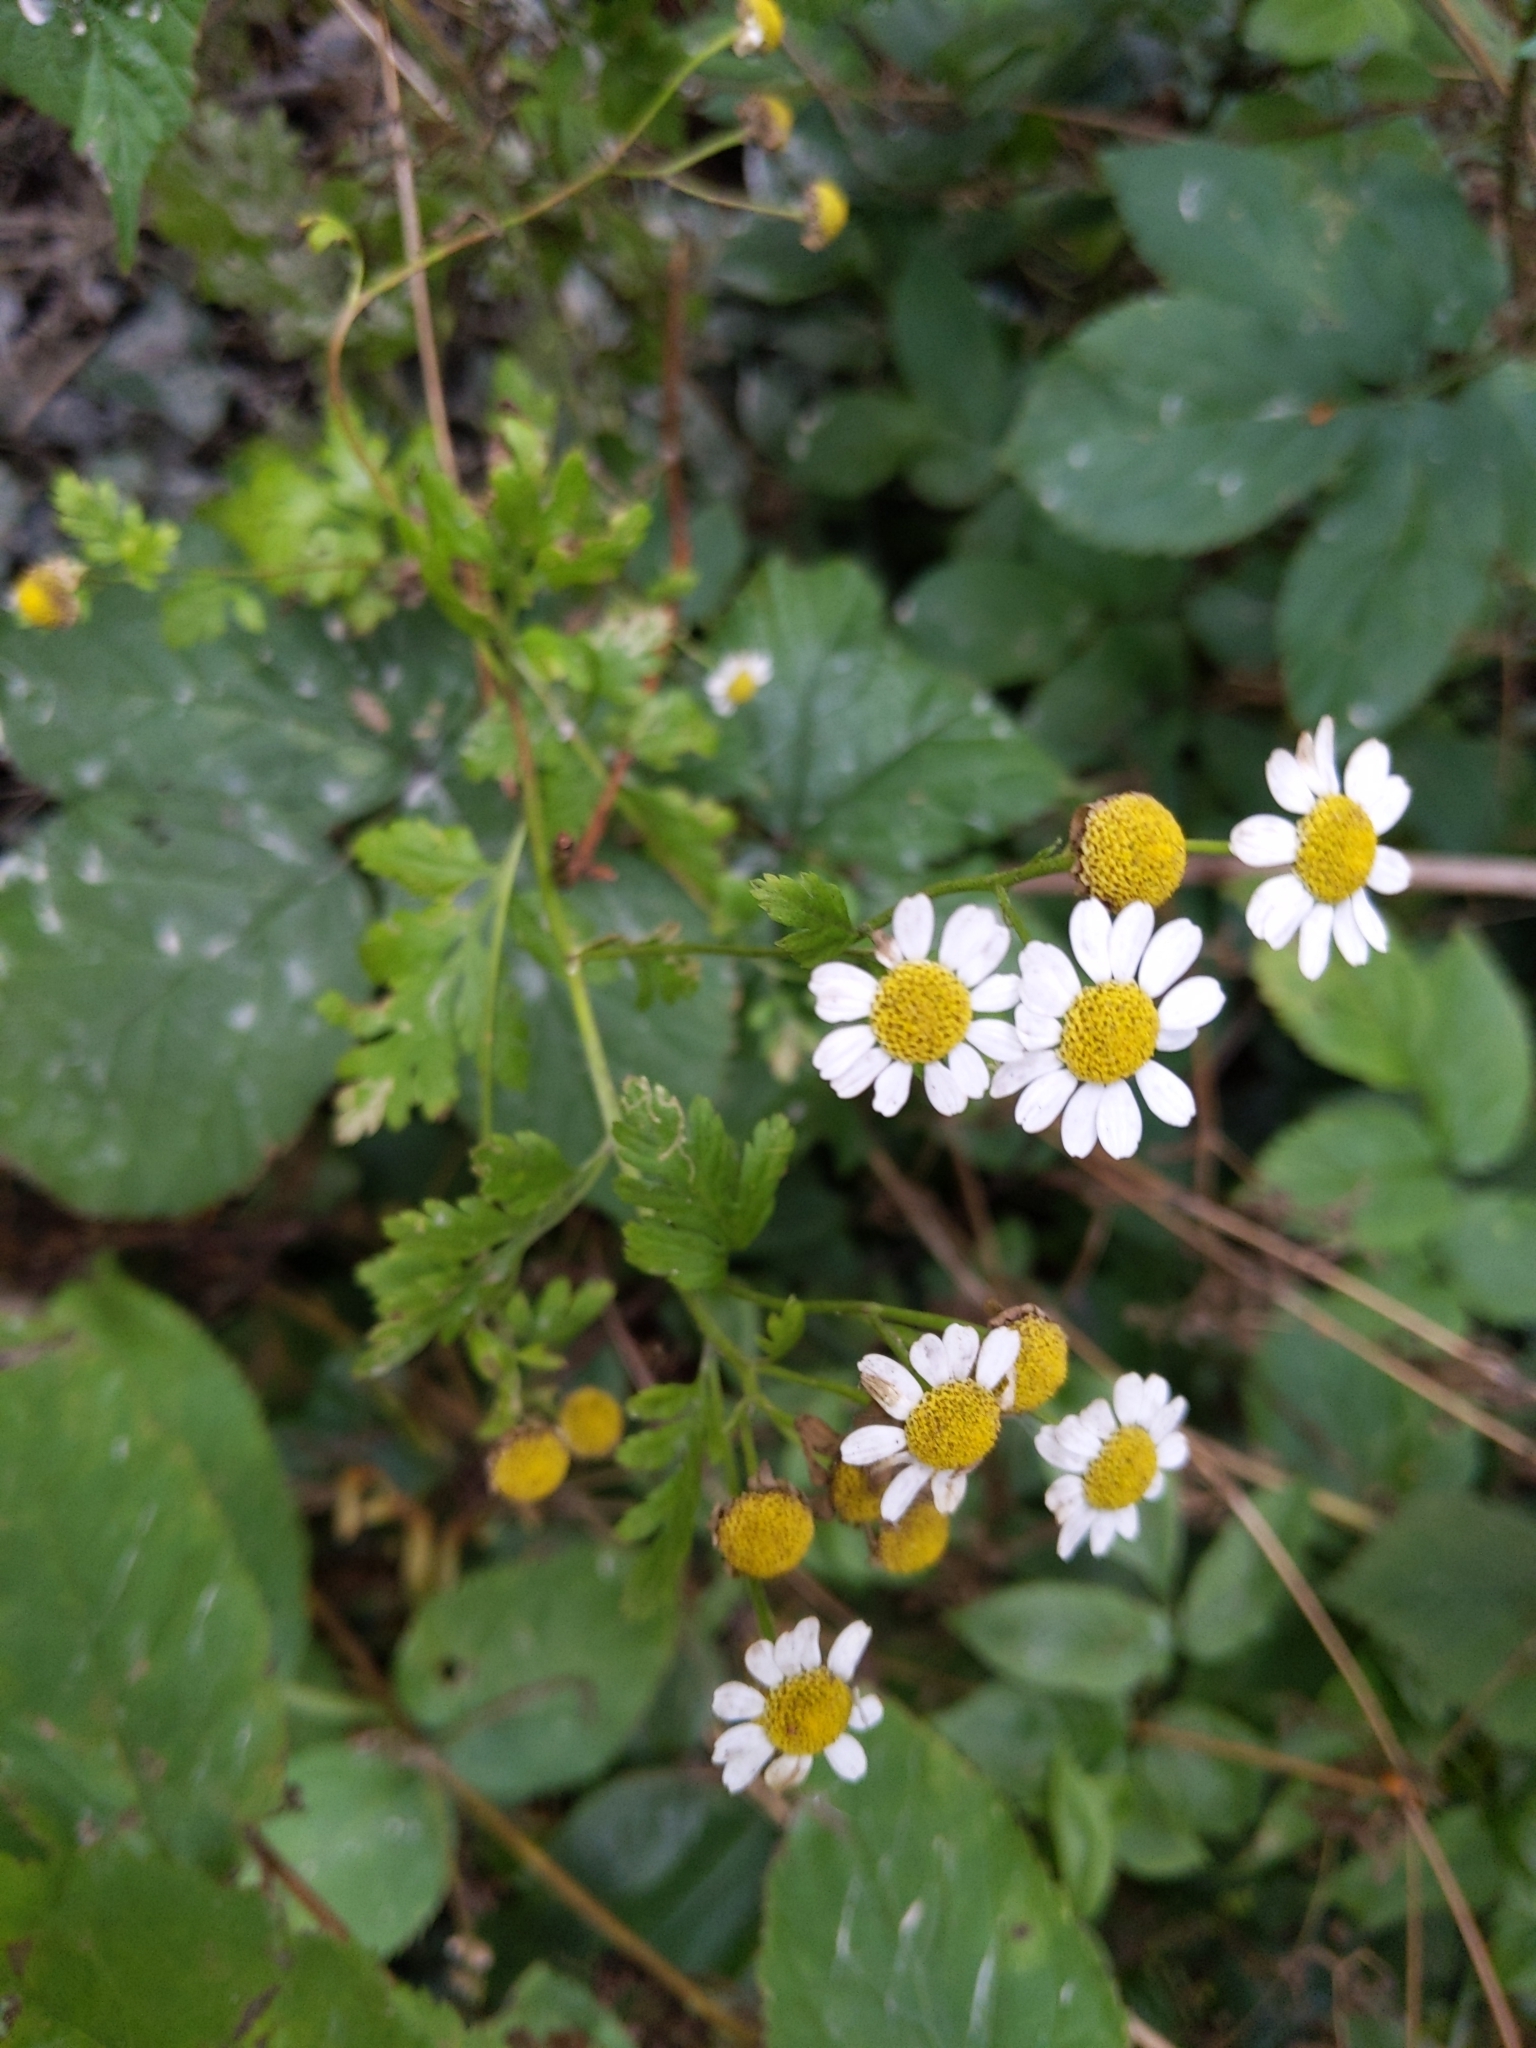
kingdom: Plantae
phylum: Tracheophyta
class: Magnoliopsida
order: Asterales
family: Asteraceae
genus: Tanacetum
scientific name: Tanacetum parthenium
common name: Feverfew
